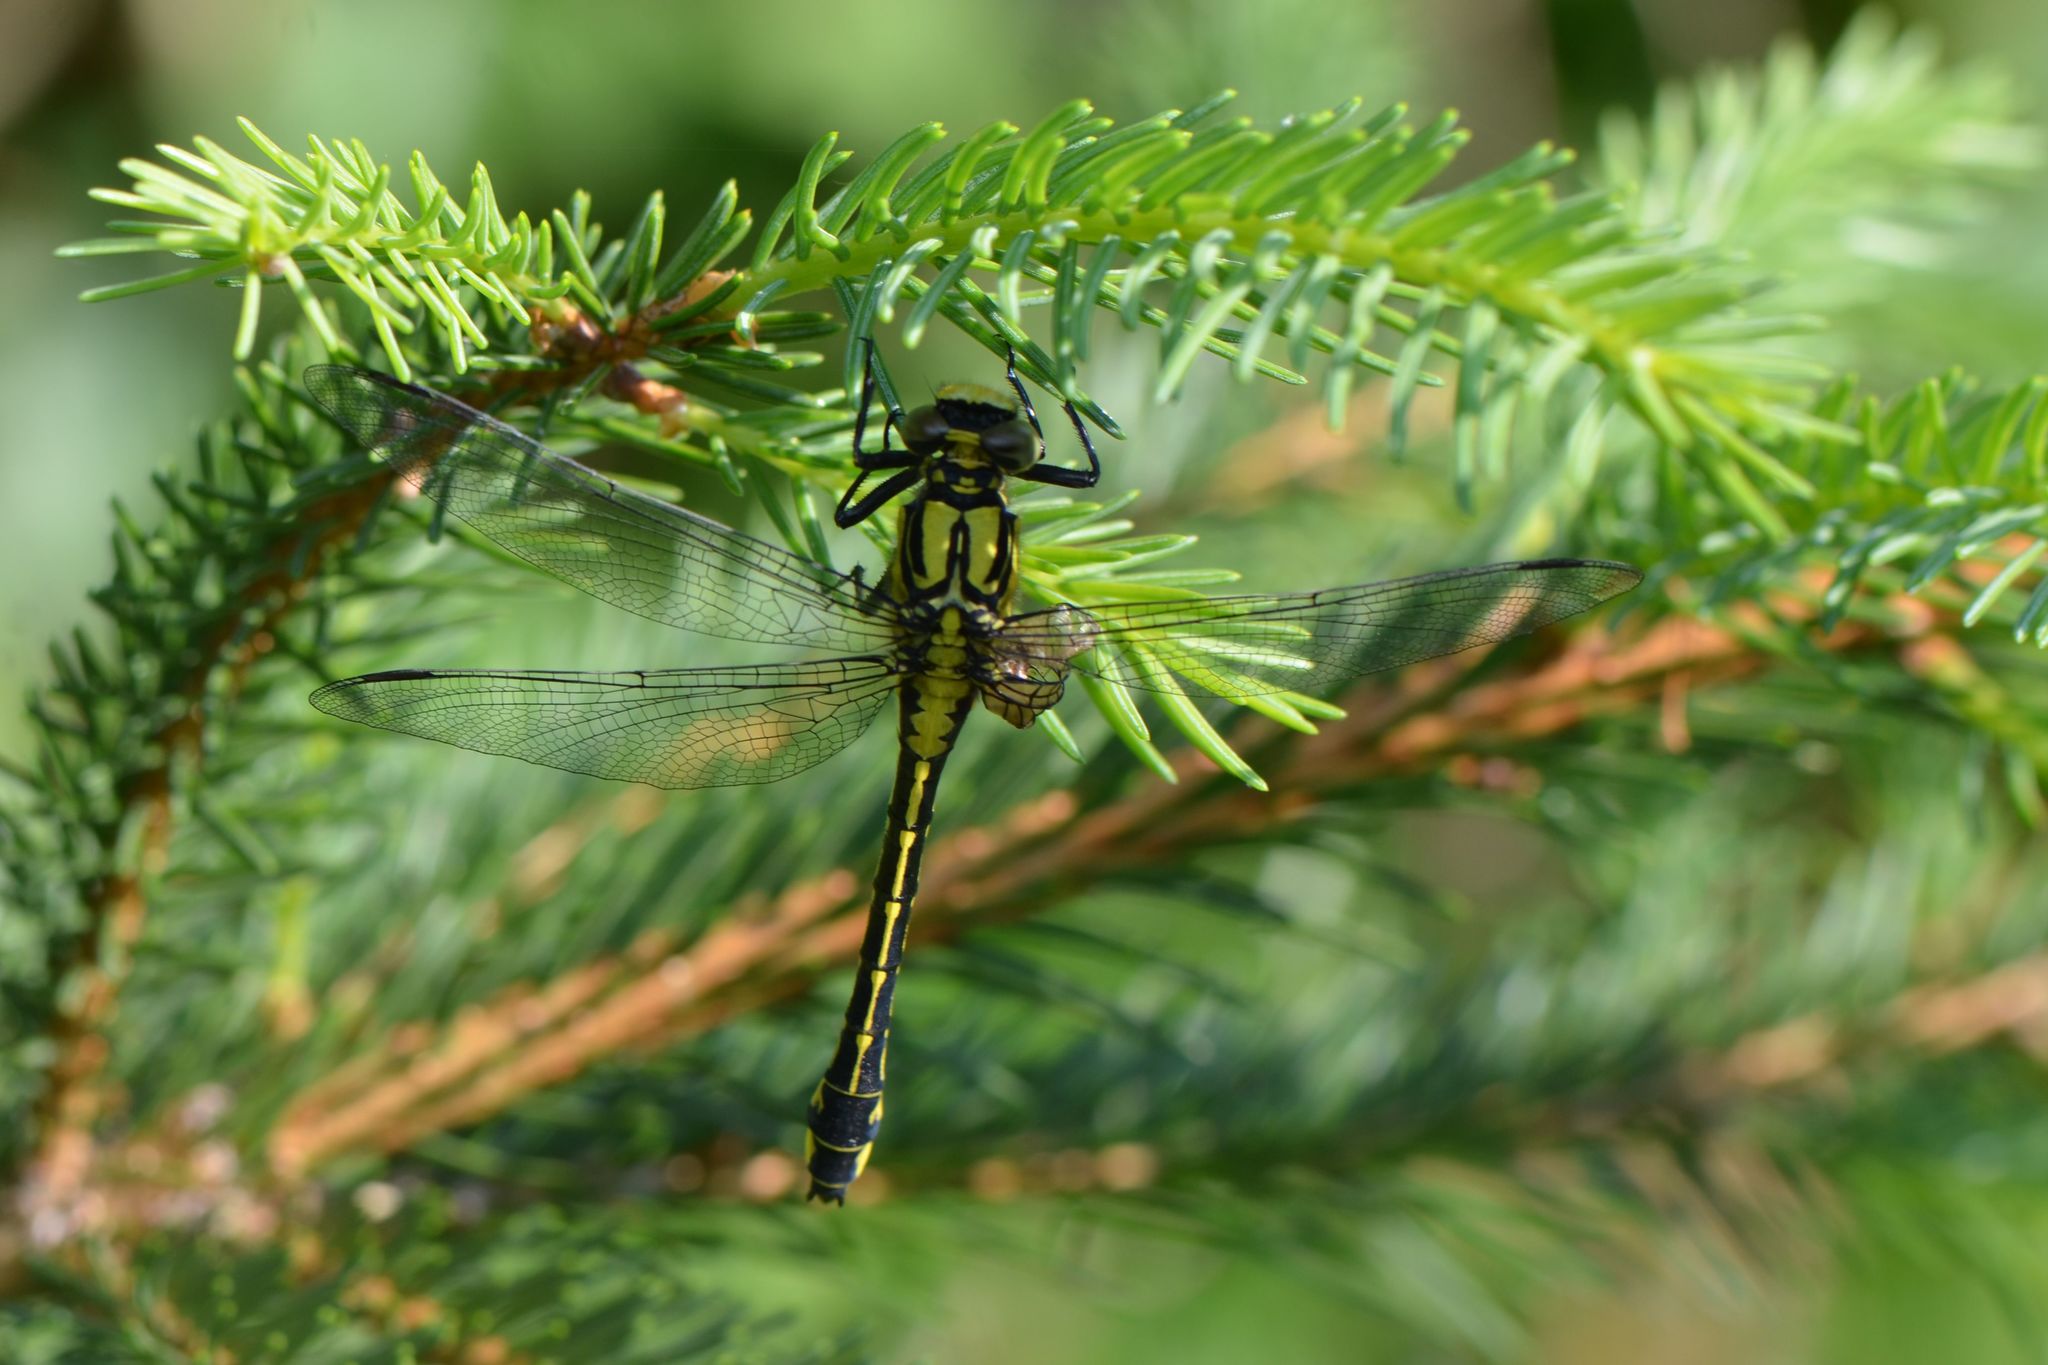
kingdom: Animalia
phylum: Arthropoda
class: Insecta
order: Odonata
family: Gomphidae
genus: Gomphus
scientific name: Gomphus vulgatissimus
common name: Club-tailed dragonfly
